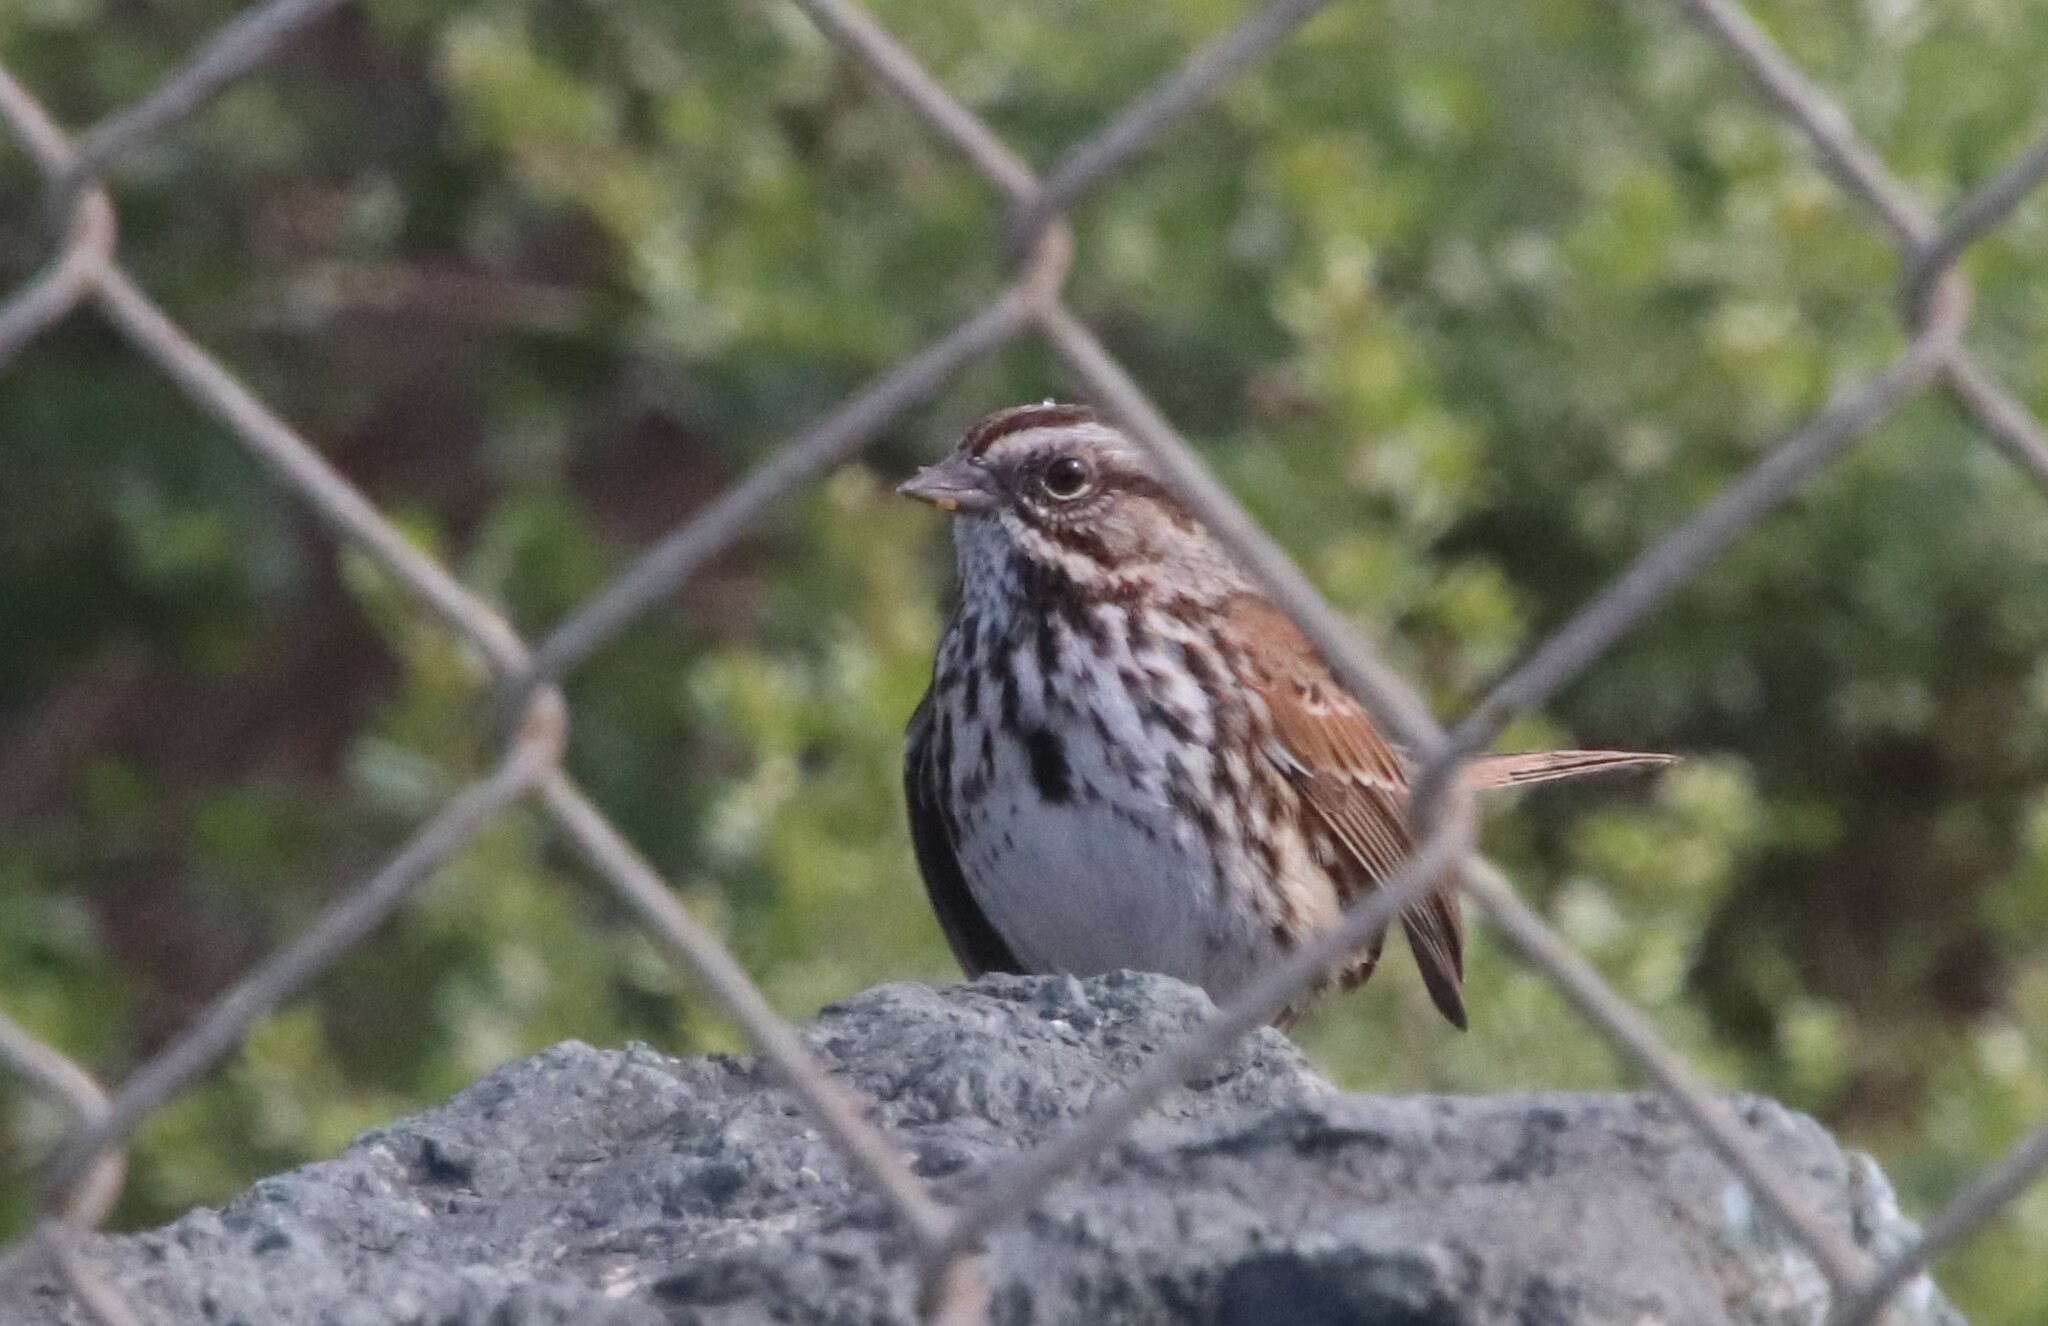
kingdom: Animalia
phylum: Chordata
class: Aves
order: Passeriformes
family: Passerellidae
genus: Melospiza
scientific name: Melospiza melodia
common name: Song sparrow
